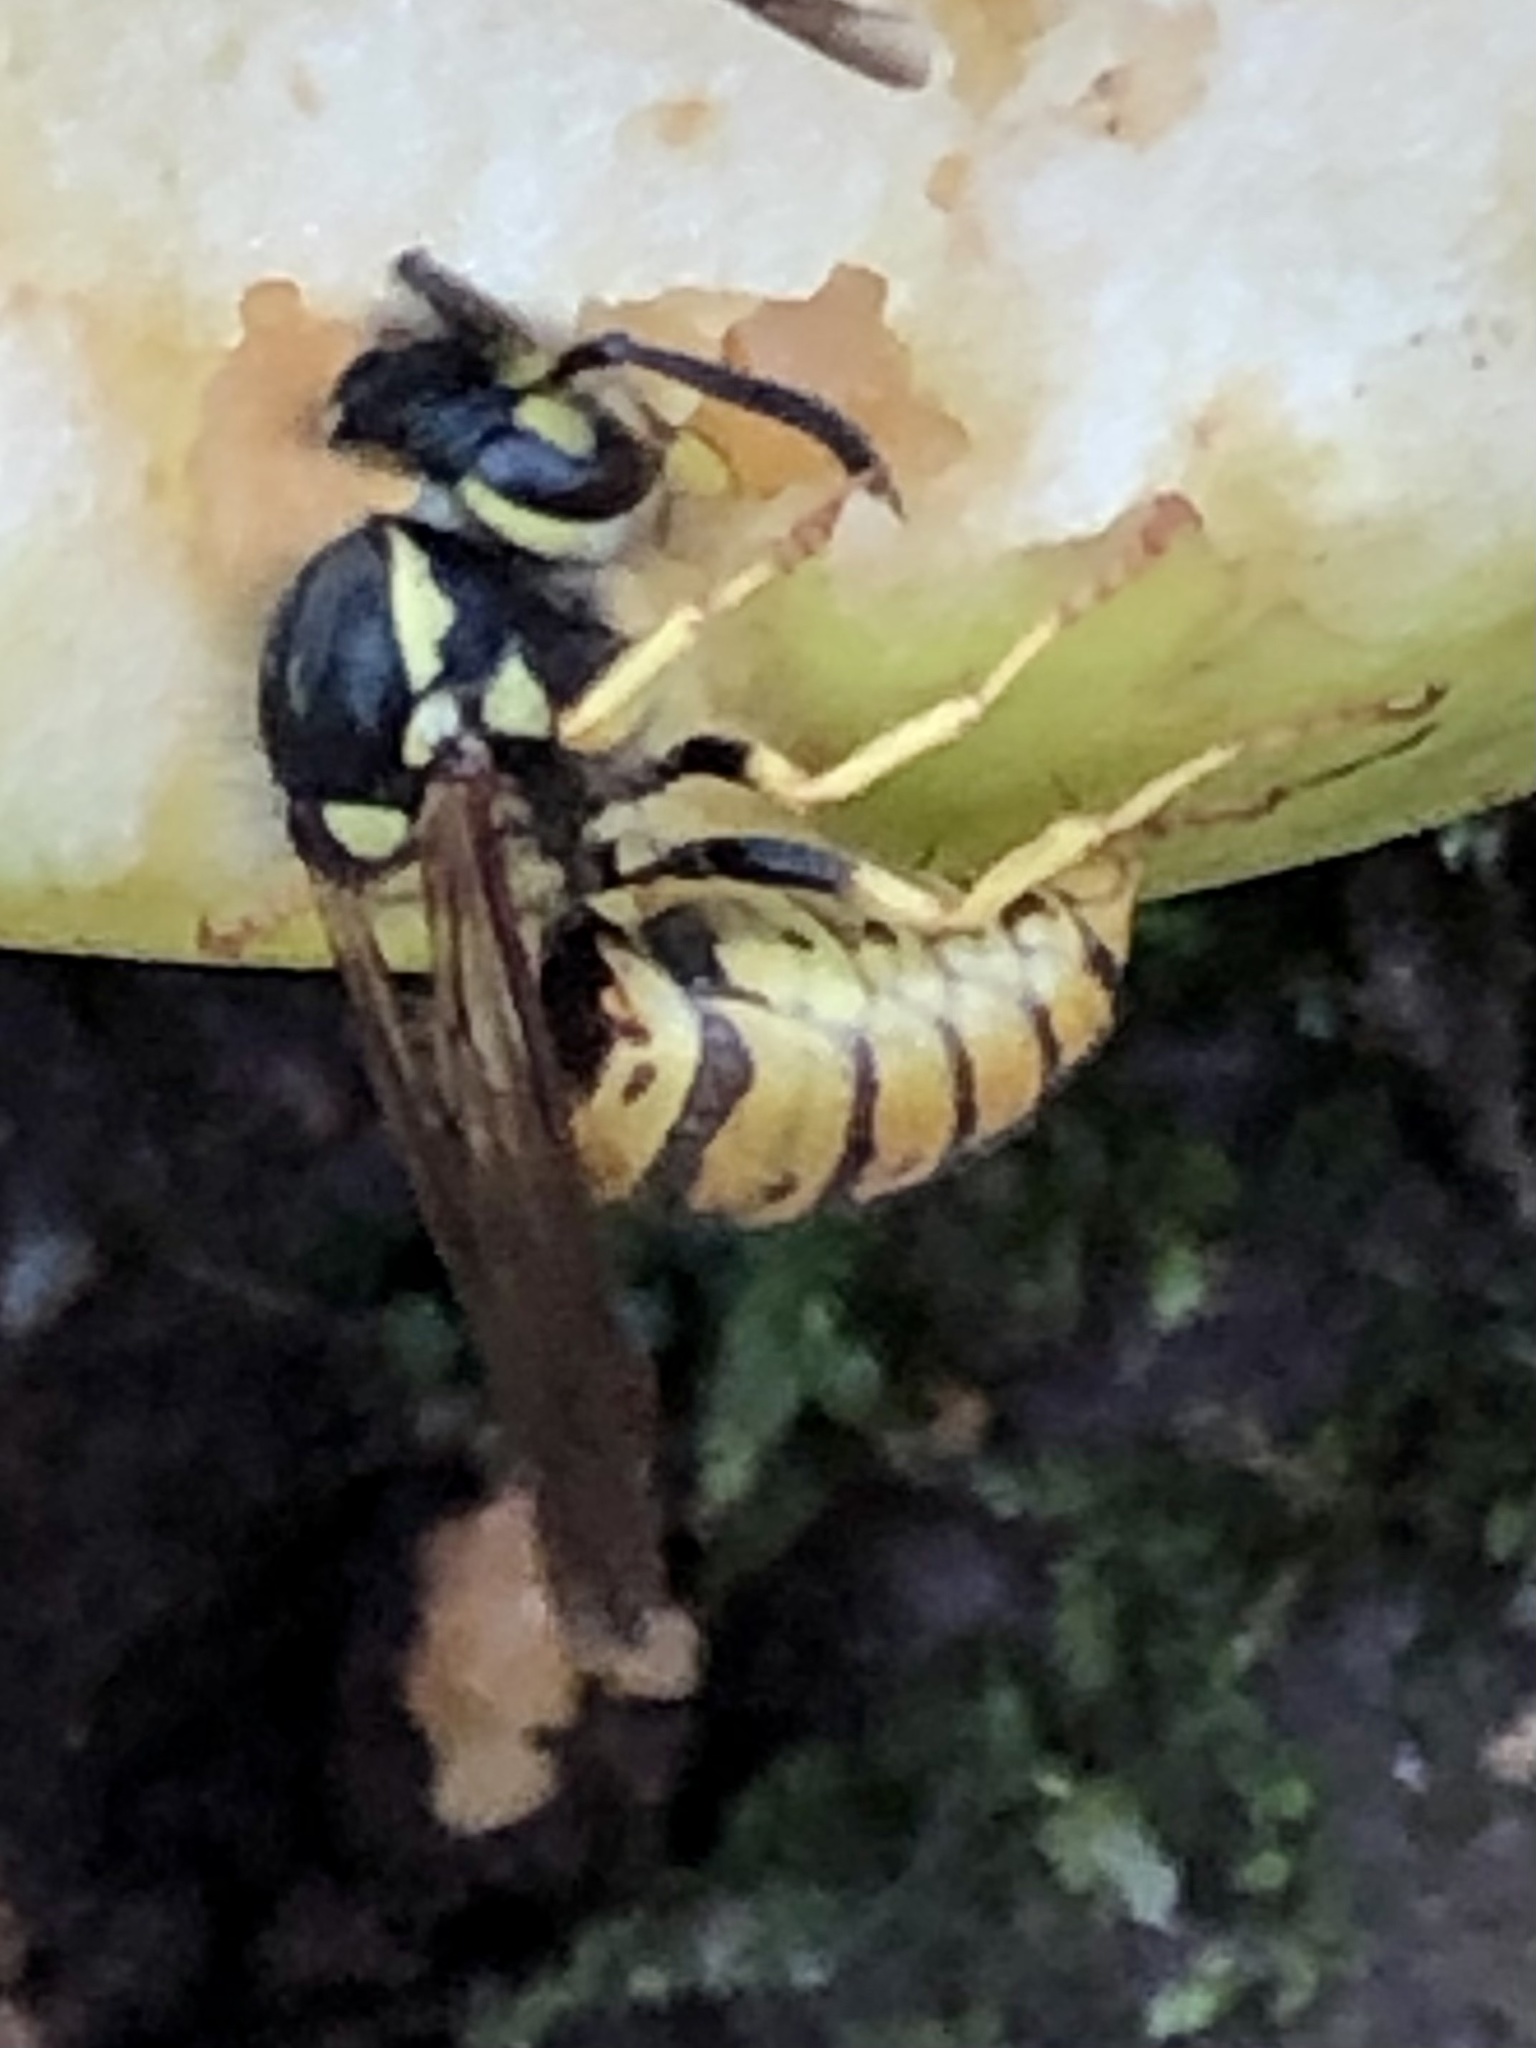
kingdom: Animalia
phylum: Arthropoda
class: Insecta
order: Hymenoptera
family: Vespidae
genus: Vespula
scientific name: Vespula germanica
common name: German wasp
